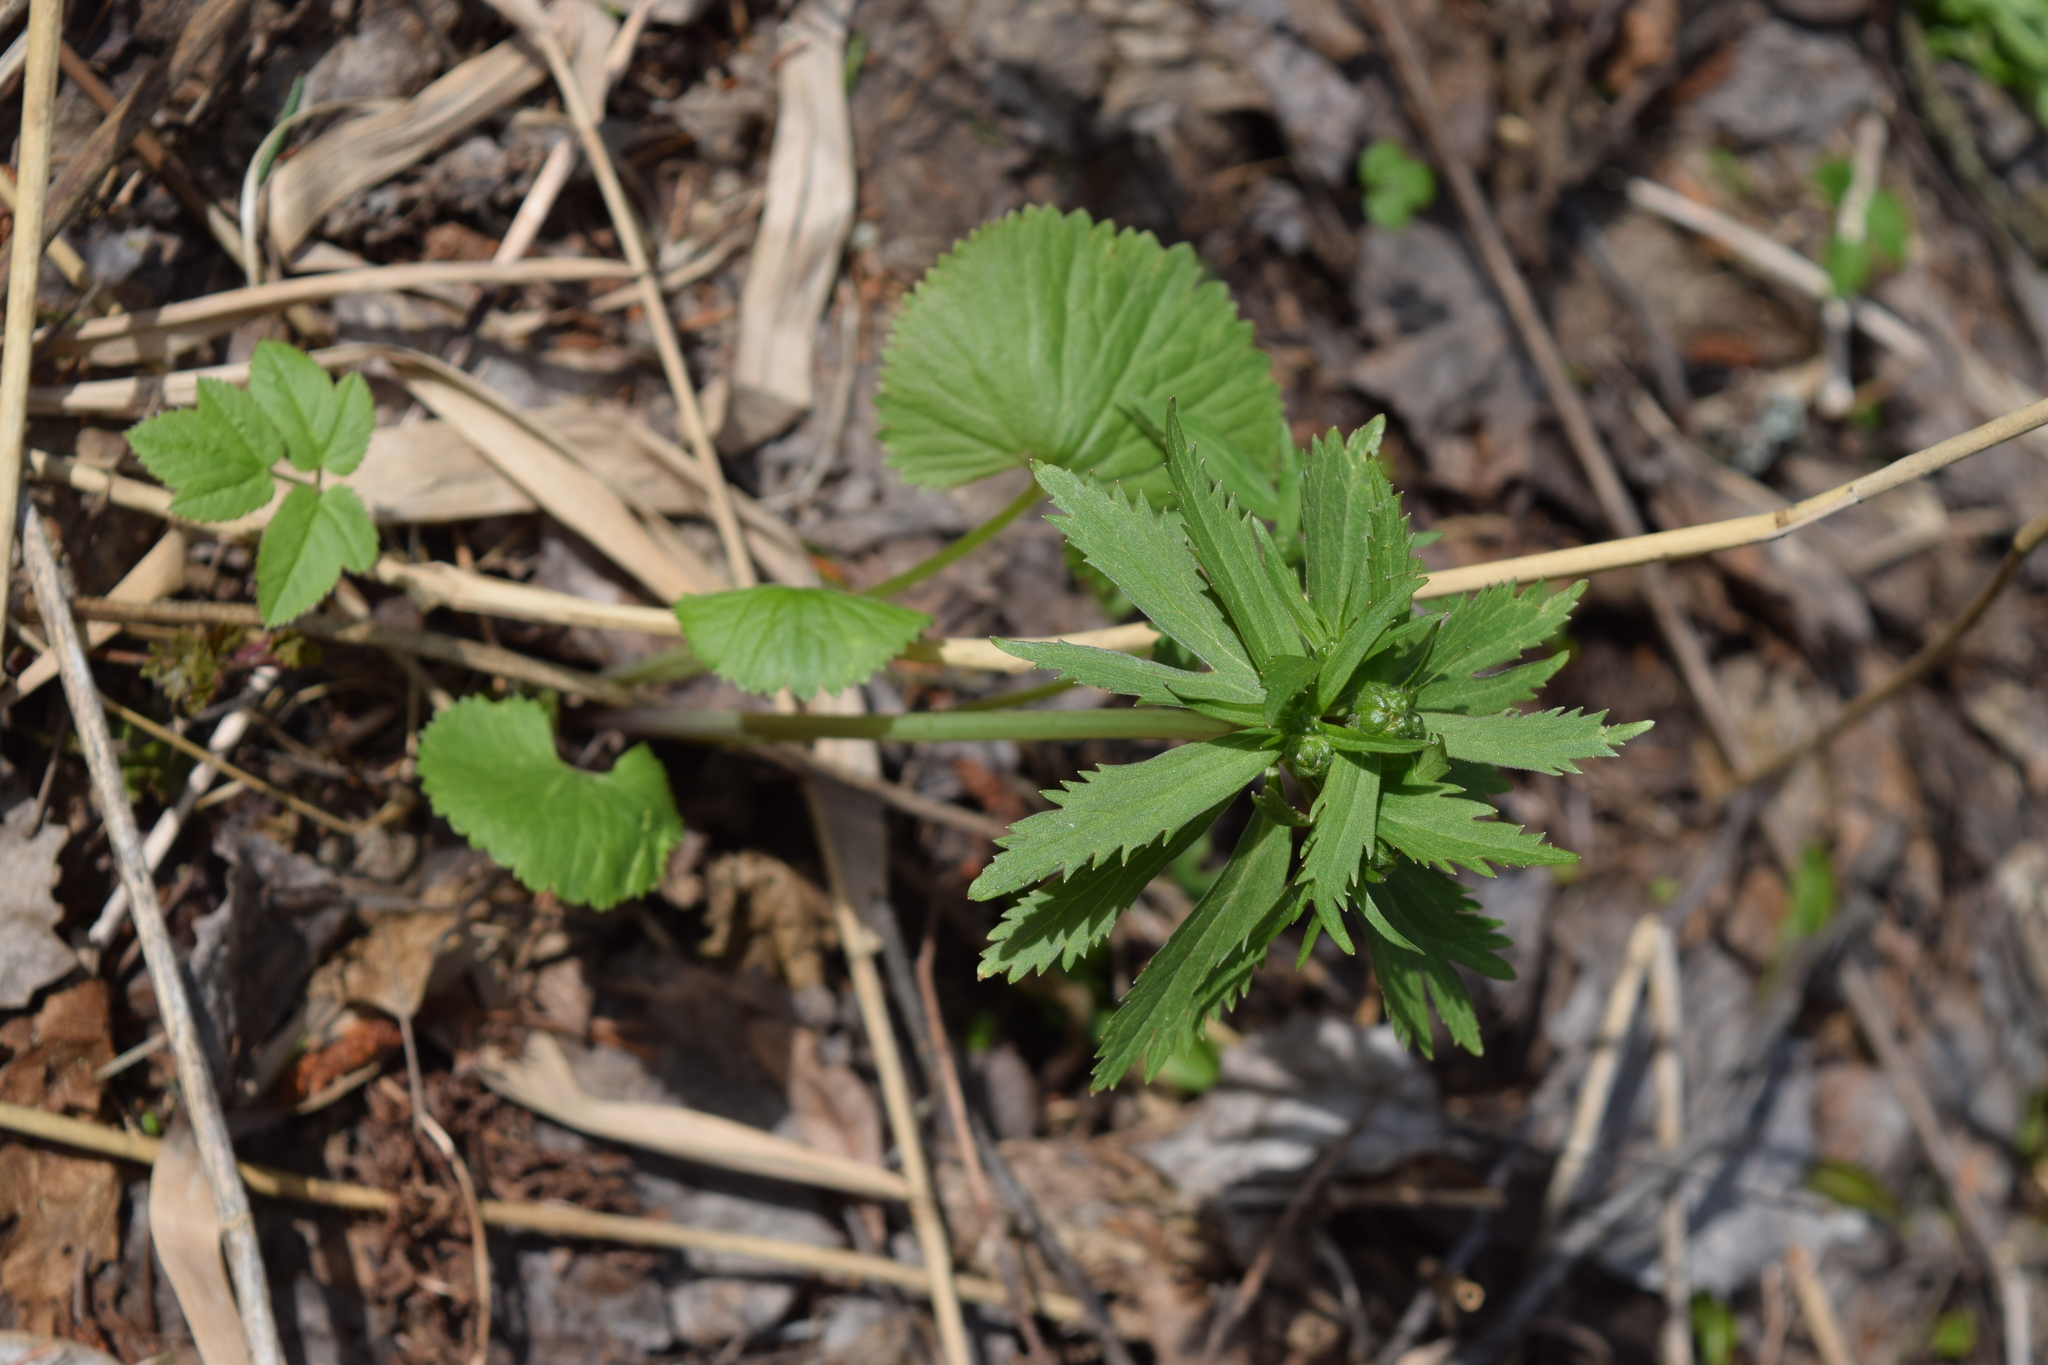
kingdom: Plantae
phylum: Tracheophyta
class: Magnoliopsida
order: Ranunculales
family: Ranunculaceae
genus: Ranunculus
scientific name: Ranunculus cassubicus
